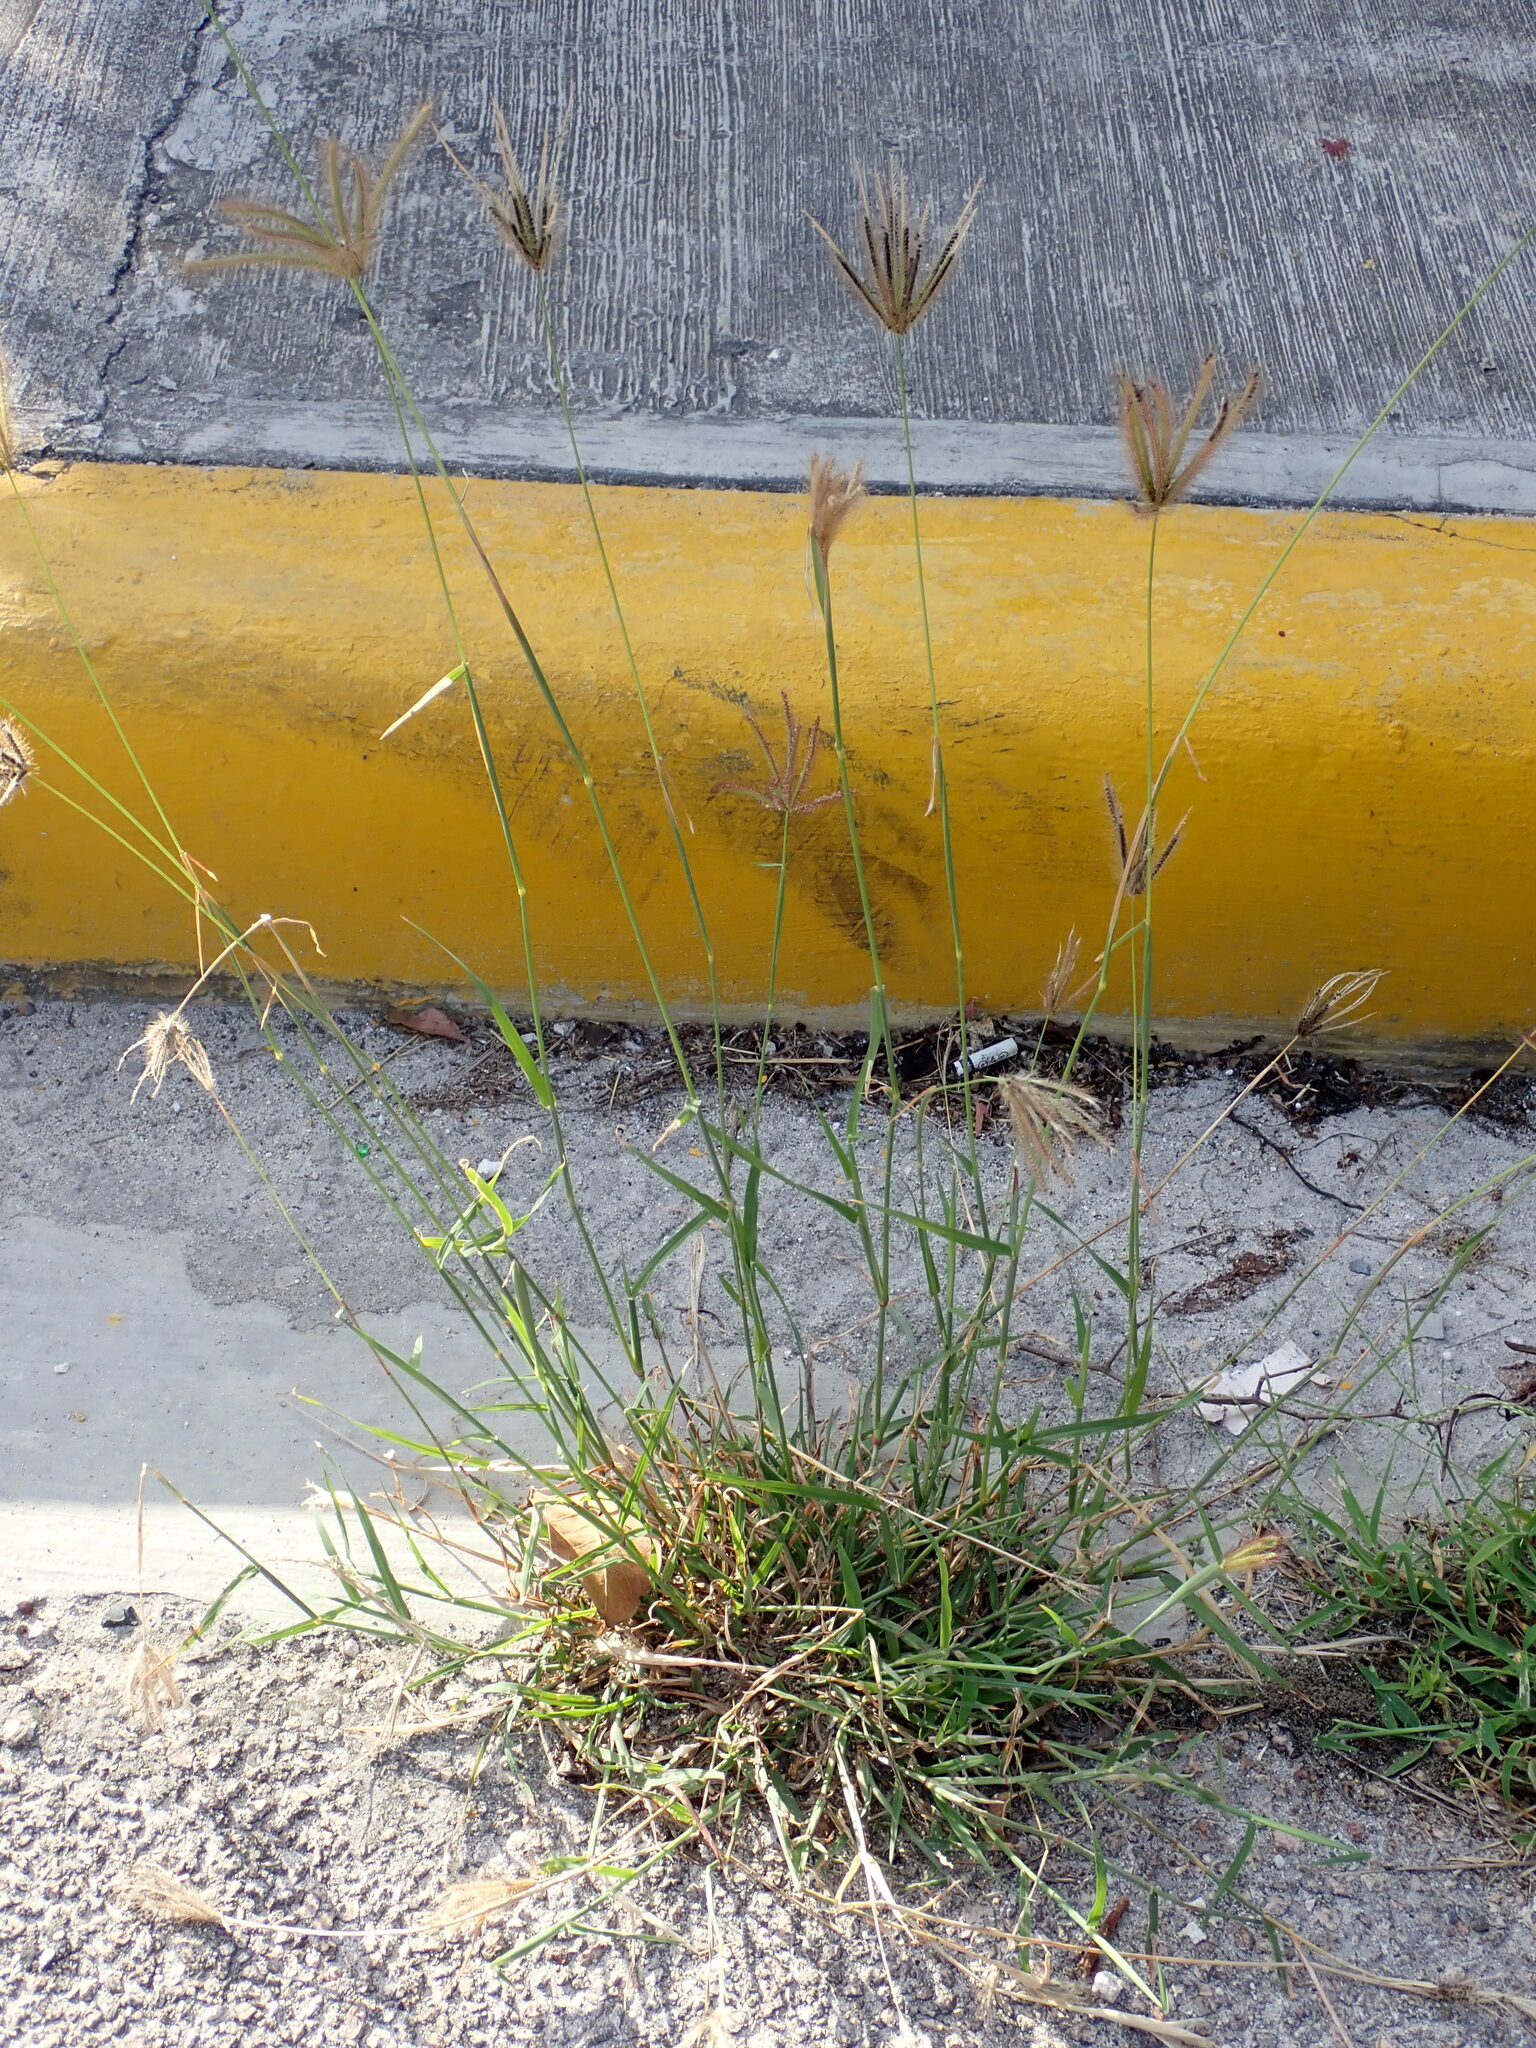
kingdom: Plantae
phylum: Tracheophyta
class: Liliopsida
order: Poales
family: Poaceae
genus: Chloris
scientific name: Chloris barbata
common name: Swollen fingergrass
